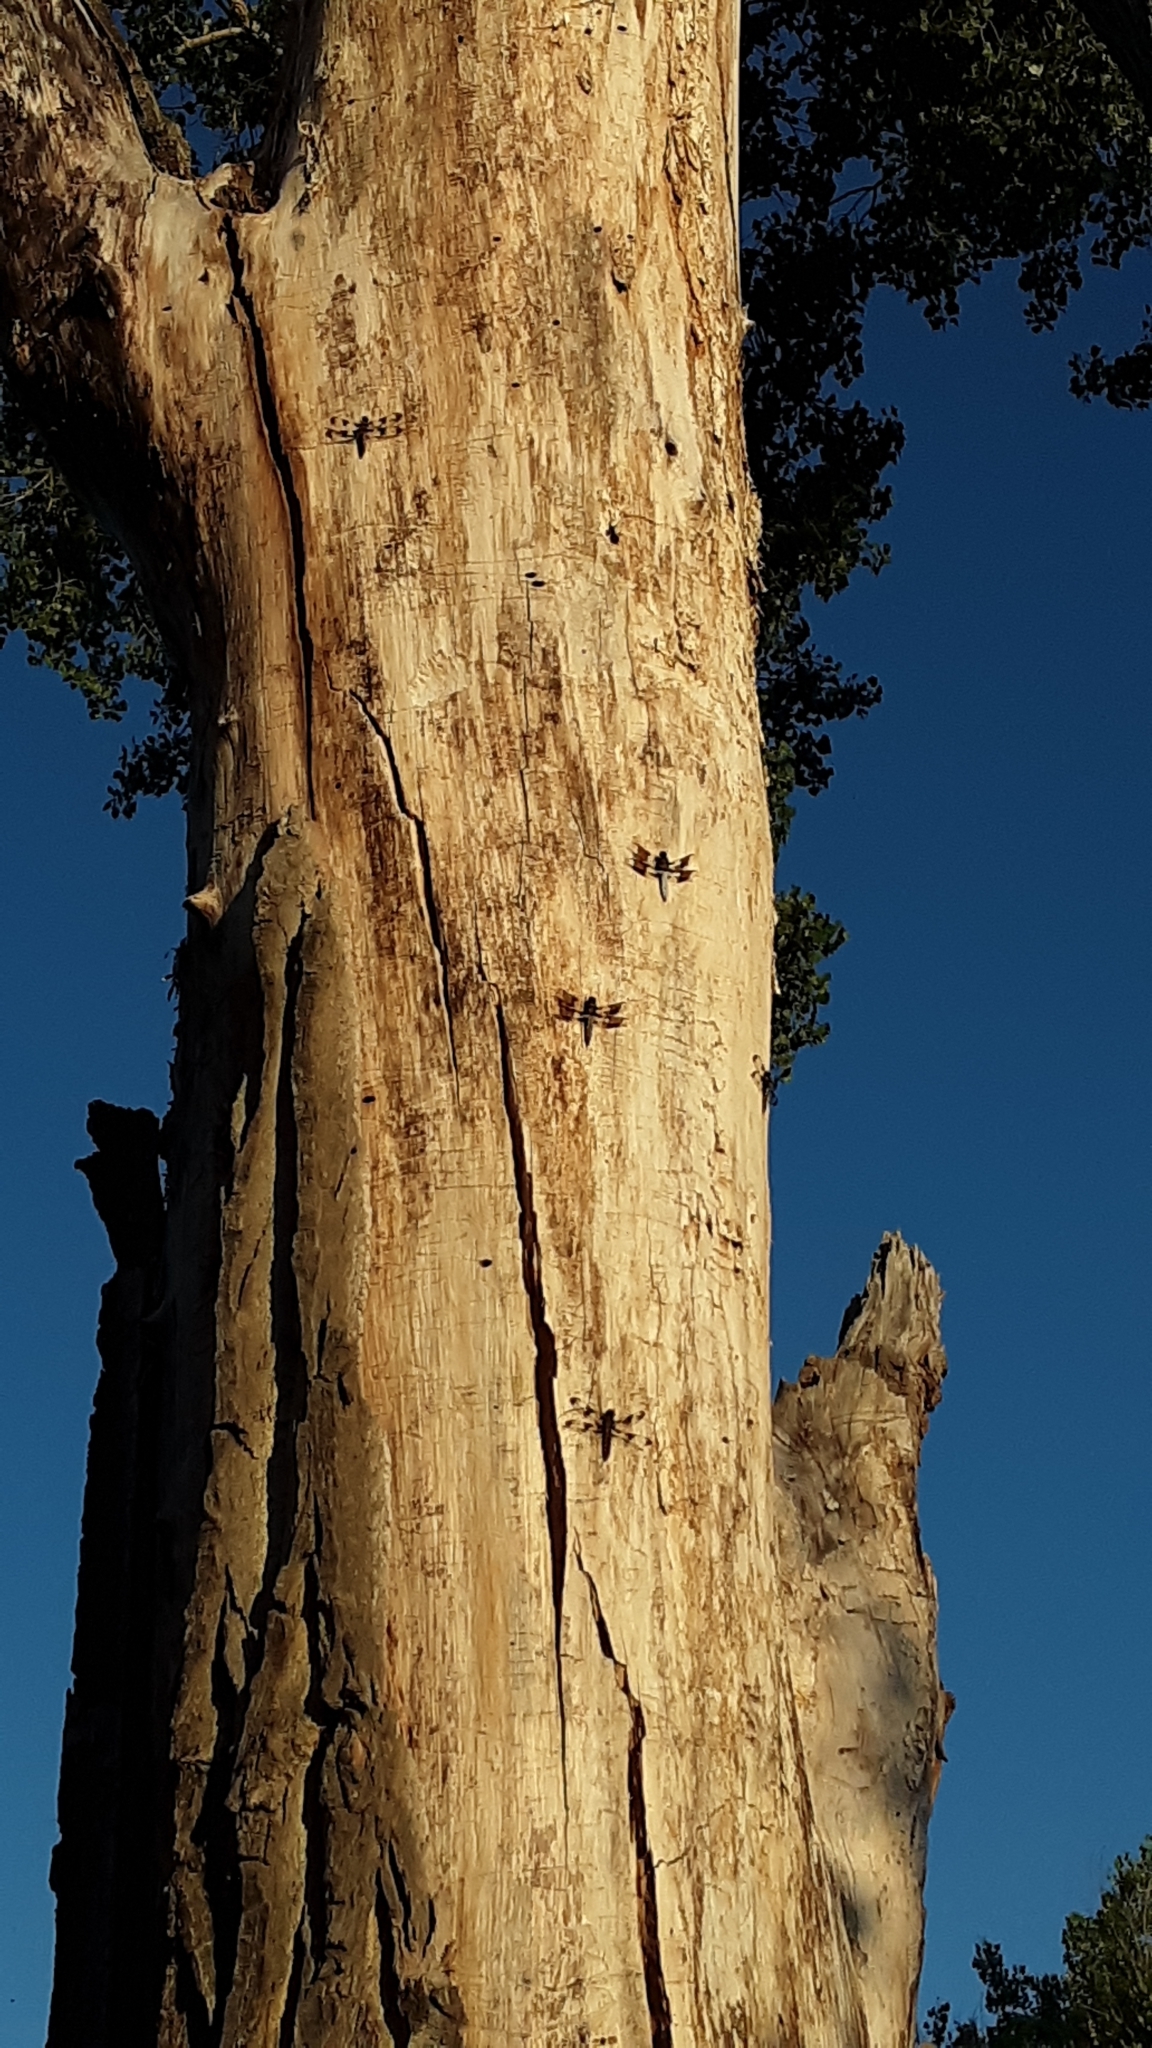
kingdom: Animalia
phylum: Arthropoda
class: Insecta
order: Odonata
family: Libellulidae
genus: Plathemis
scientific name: Plathemis lydia
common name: Common whitetail
